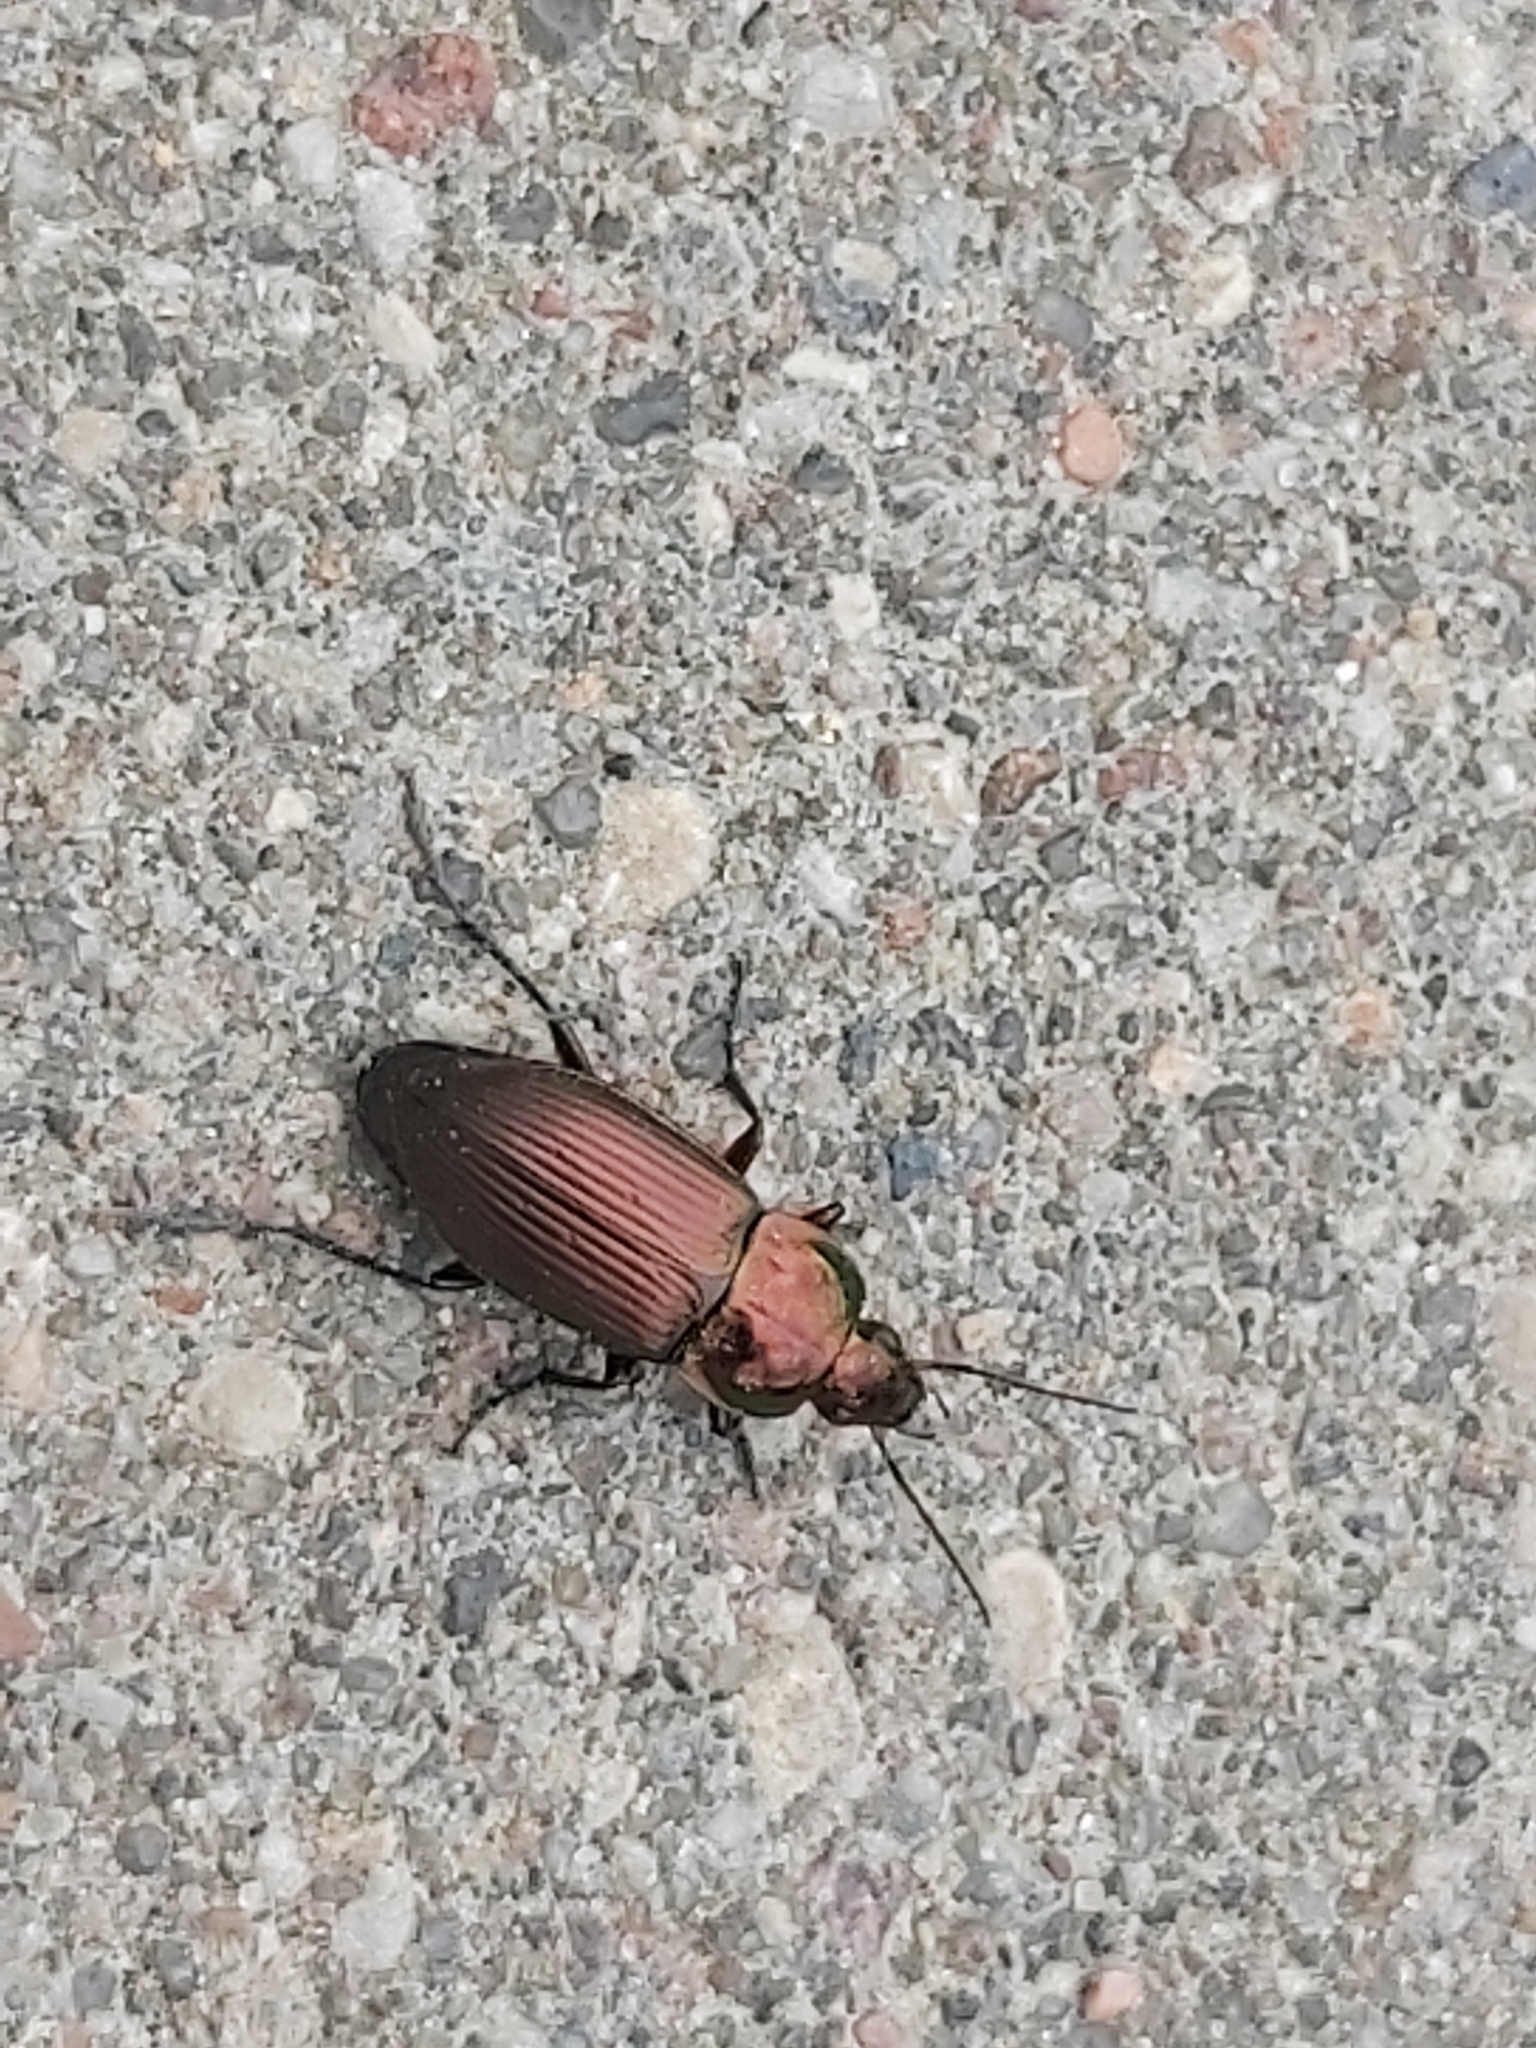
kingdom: Animalia
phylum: Arthropoda
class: Insecta
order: Coleoptera
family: Carabidae
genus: Poecilus
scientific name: Poecilus cupreus
